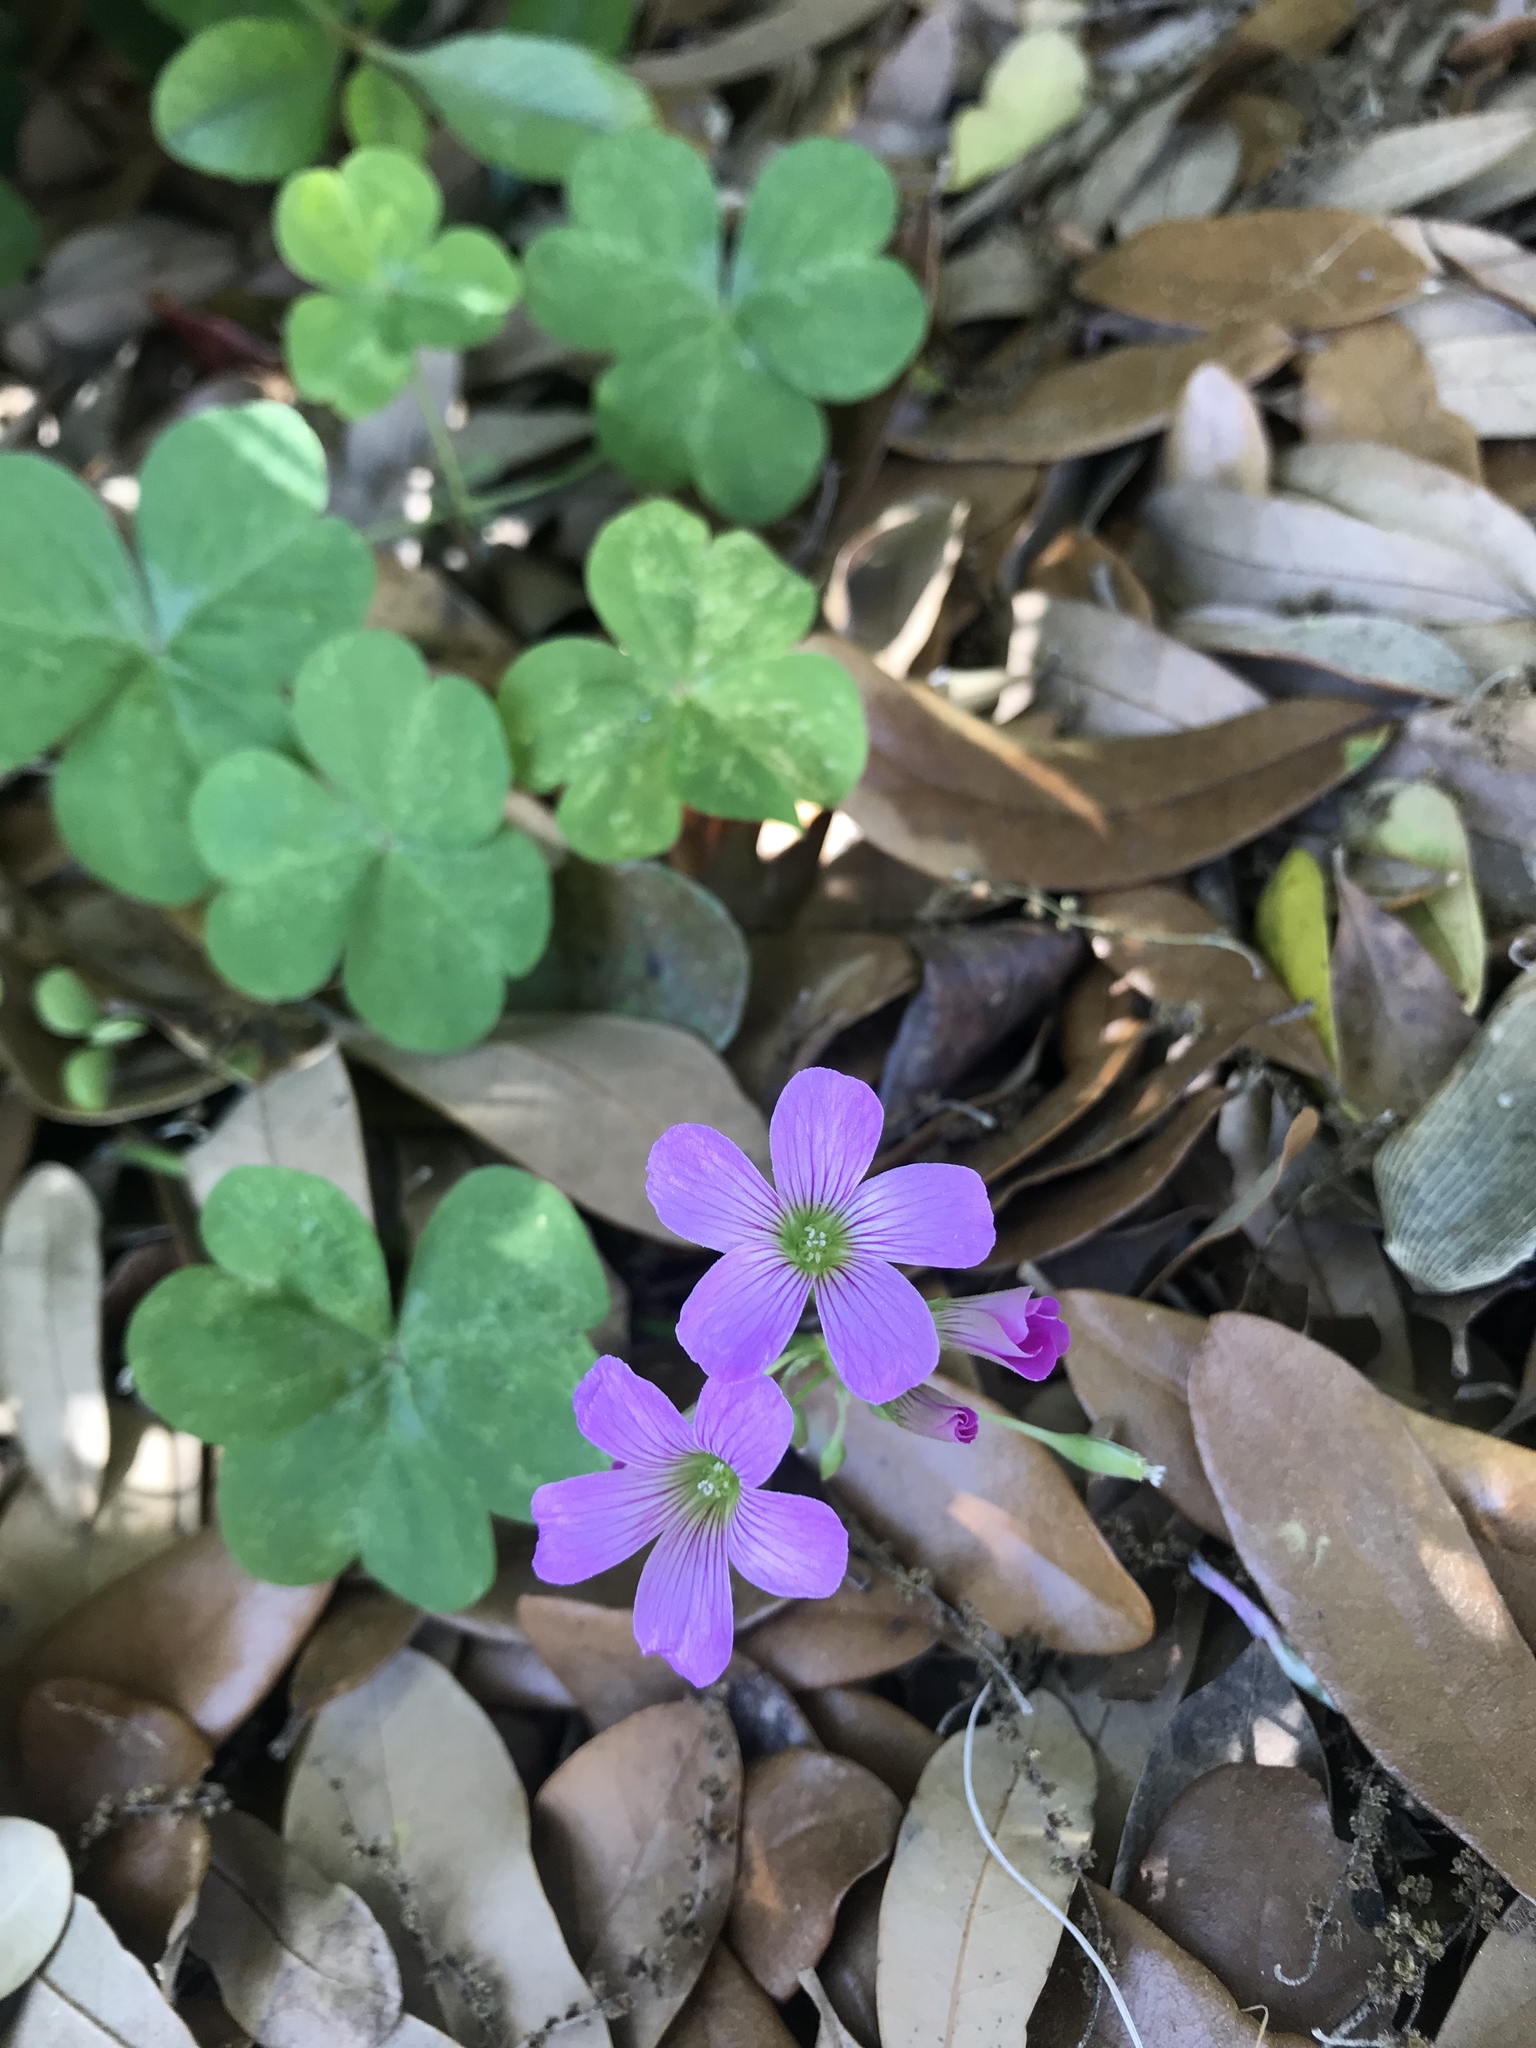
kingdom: Plantae
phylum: Tracheophyta
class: Magnoliopsida
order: Oxalidales
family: Oxalidaceae
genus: Oxalis
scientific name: Oxalis debilis
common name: Large-flowered pink-sorrel
